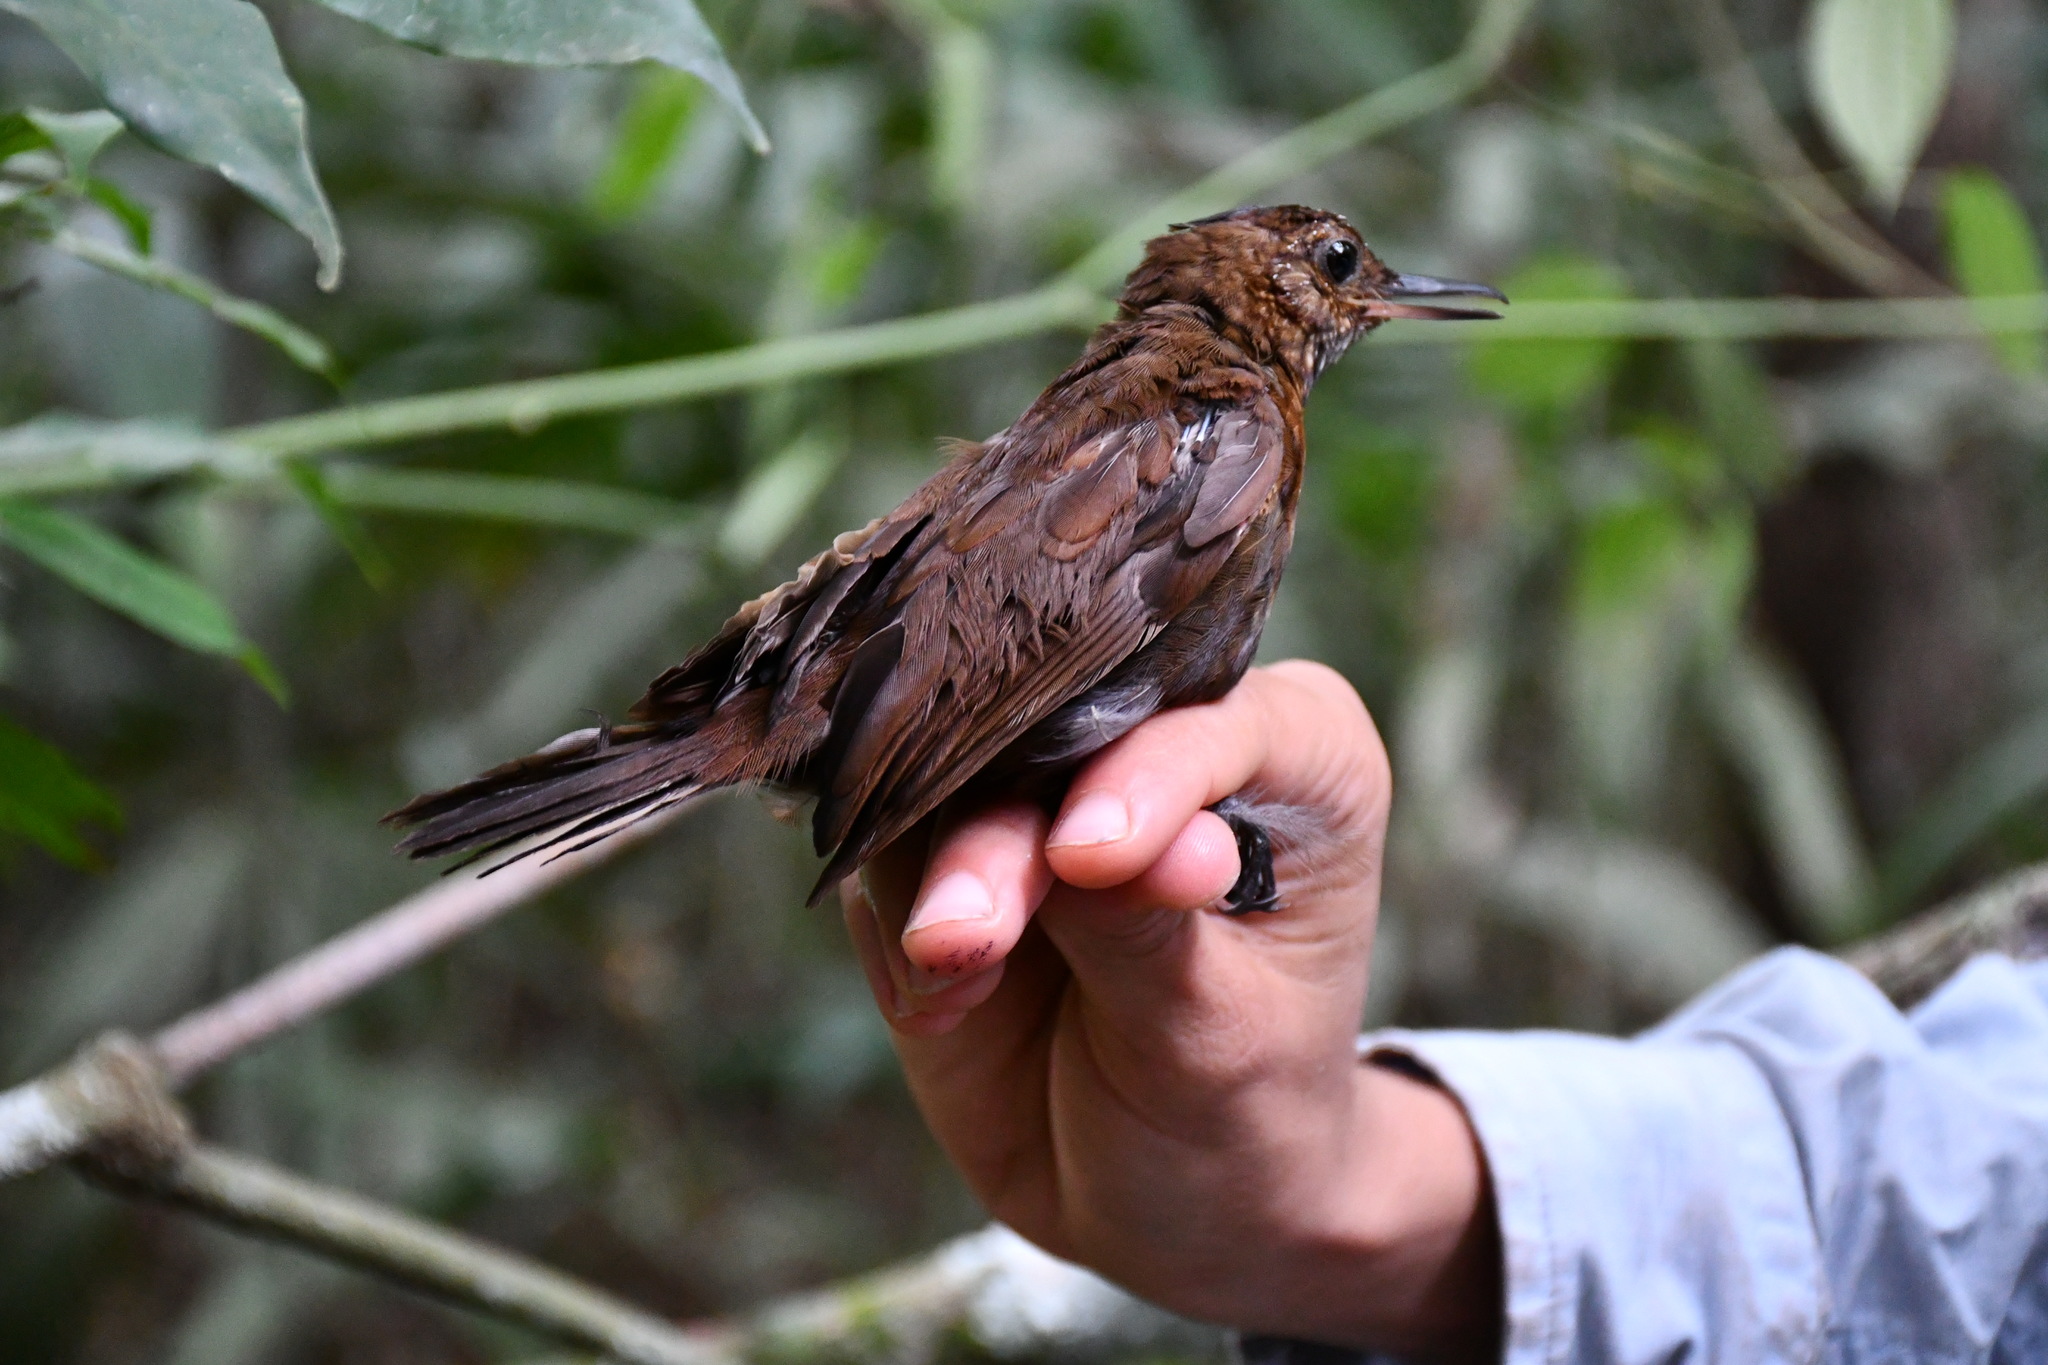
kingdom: Animalia
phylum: Chordata
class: Aves
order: Passeriformes
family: Furnariidae
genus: Sclerurus
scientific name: Sclerurus guatemalensis
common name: Scaly-throated leaftosser
